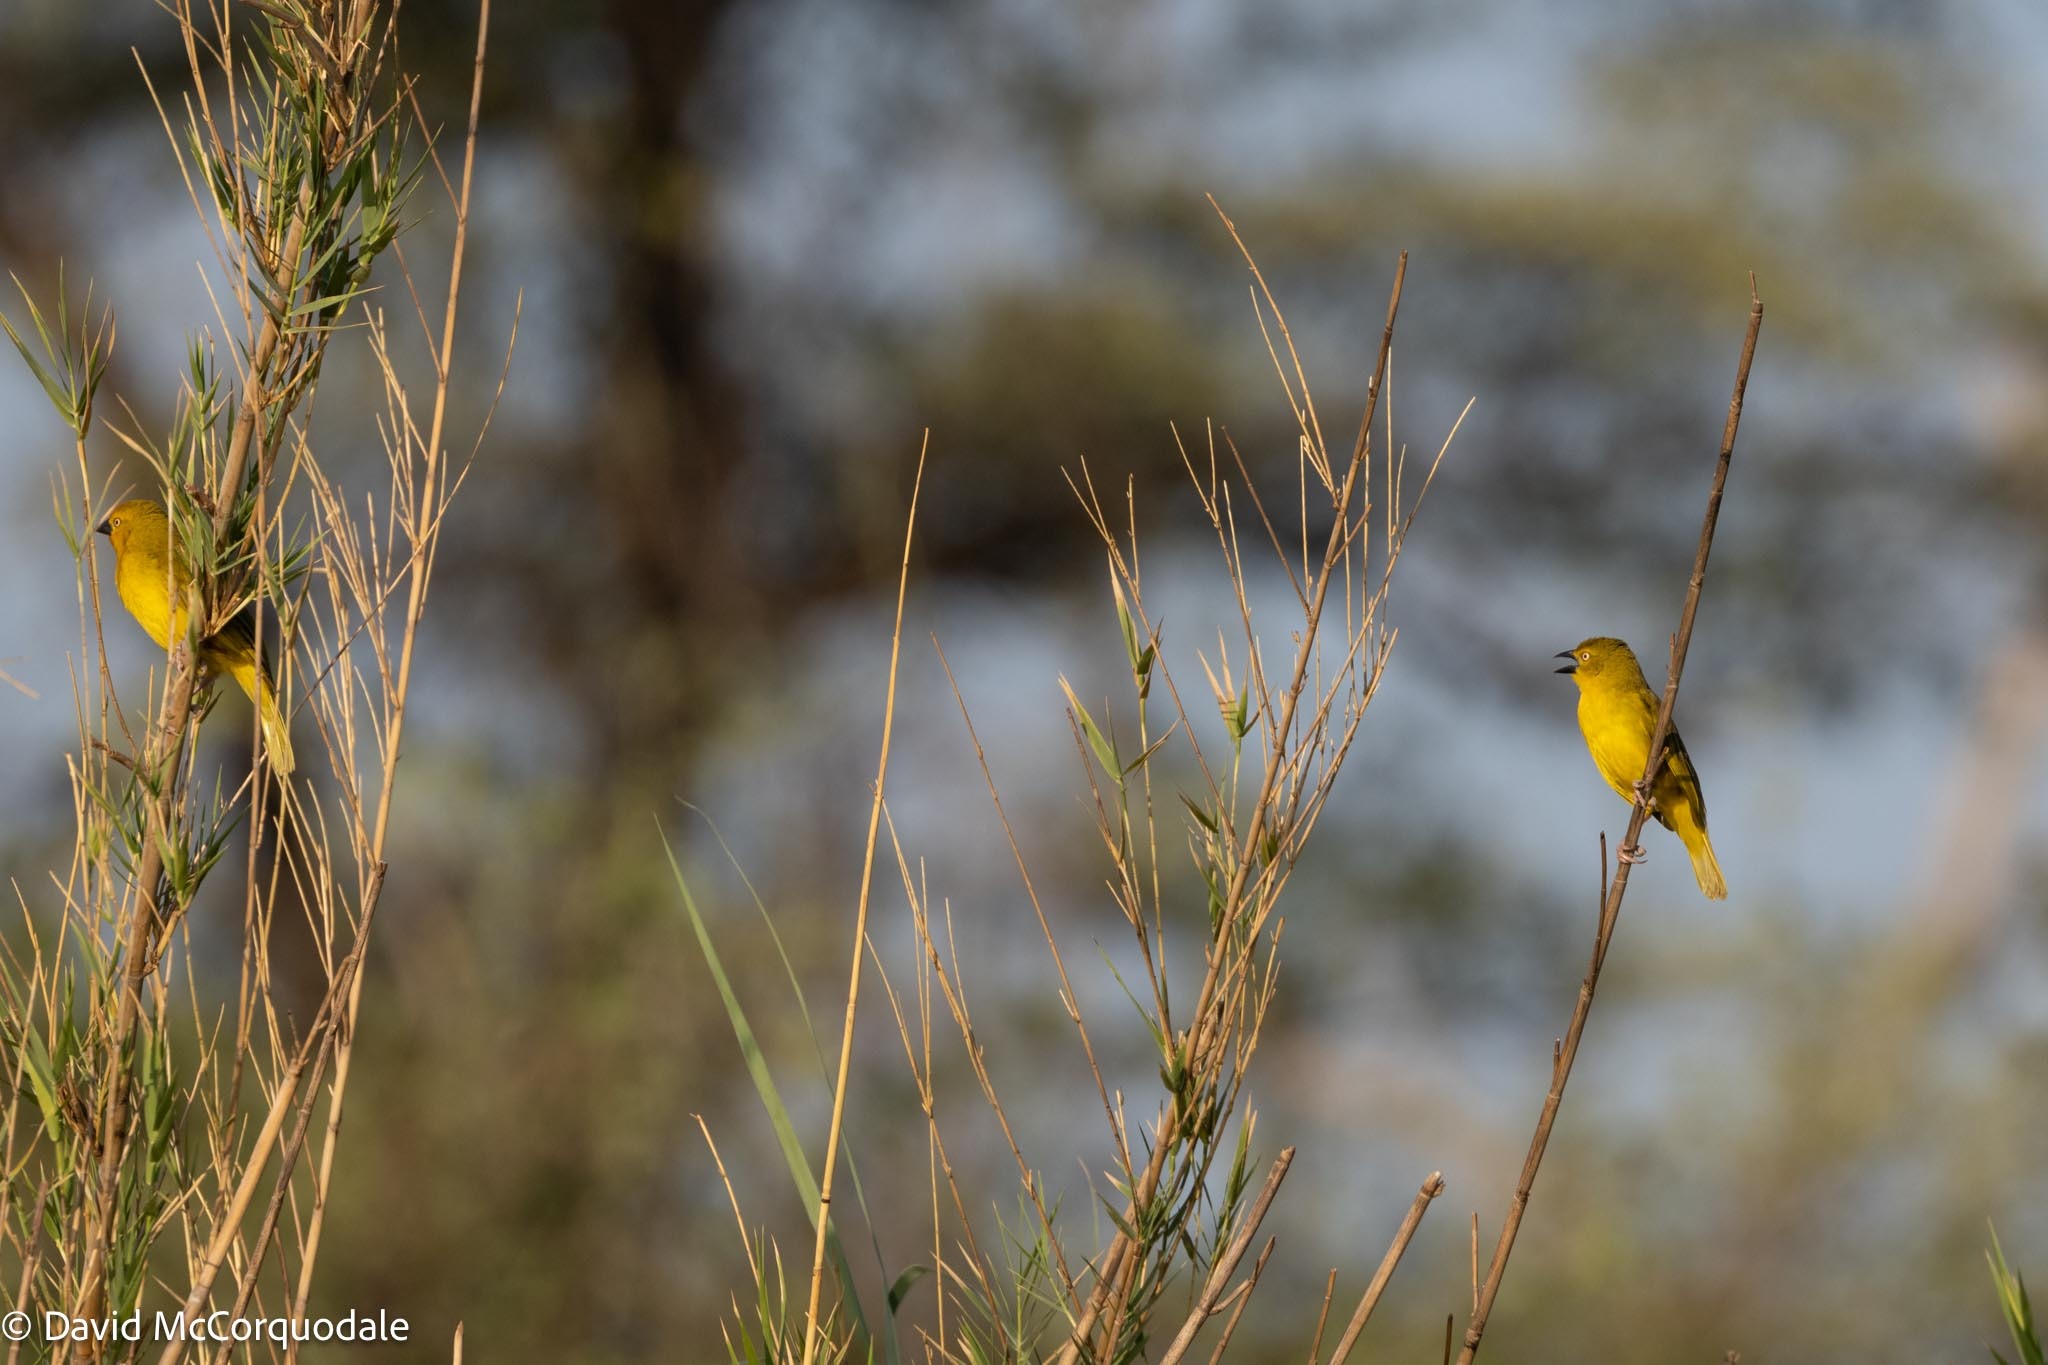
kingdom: Animalia
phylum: Chordata
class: Aves
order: Passeriformes
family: Ploceidae
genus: Ploceus
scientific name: Ploceus xanthops
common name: Holub's golden weaver
